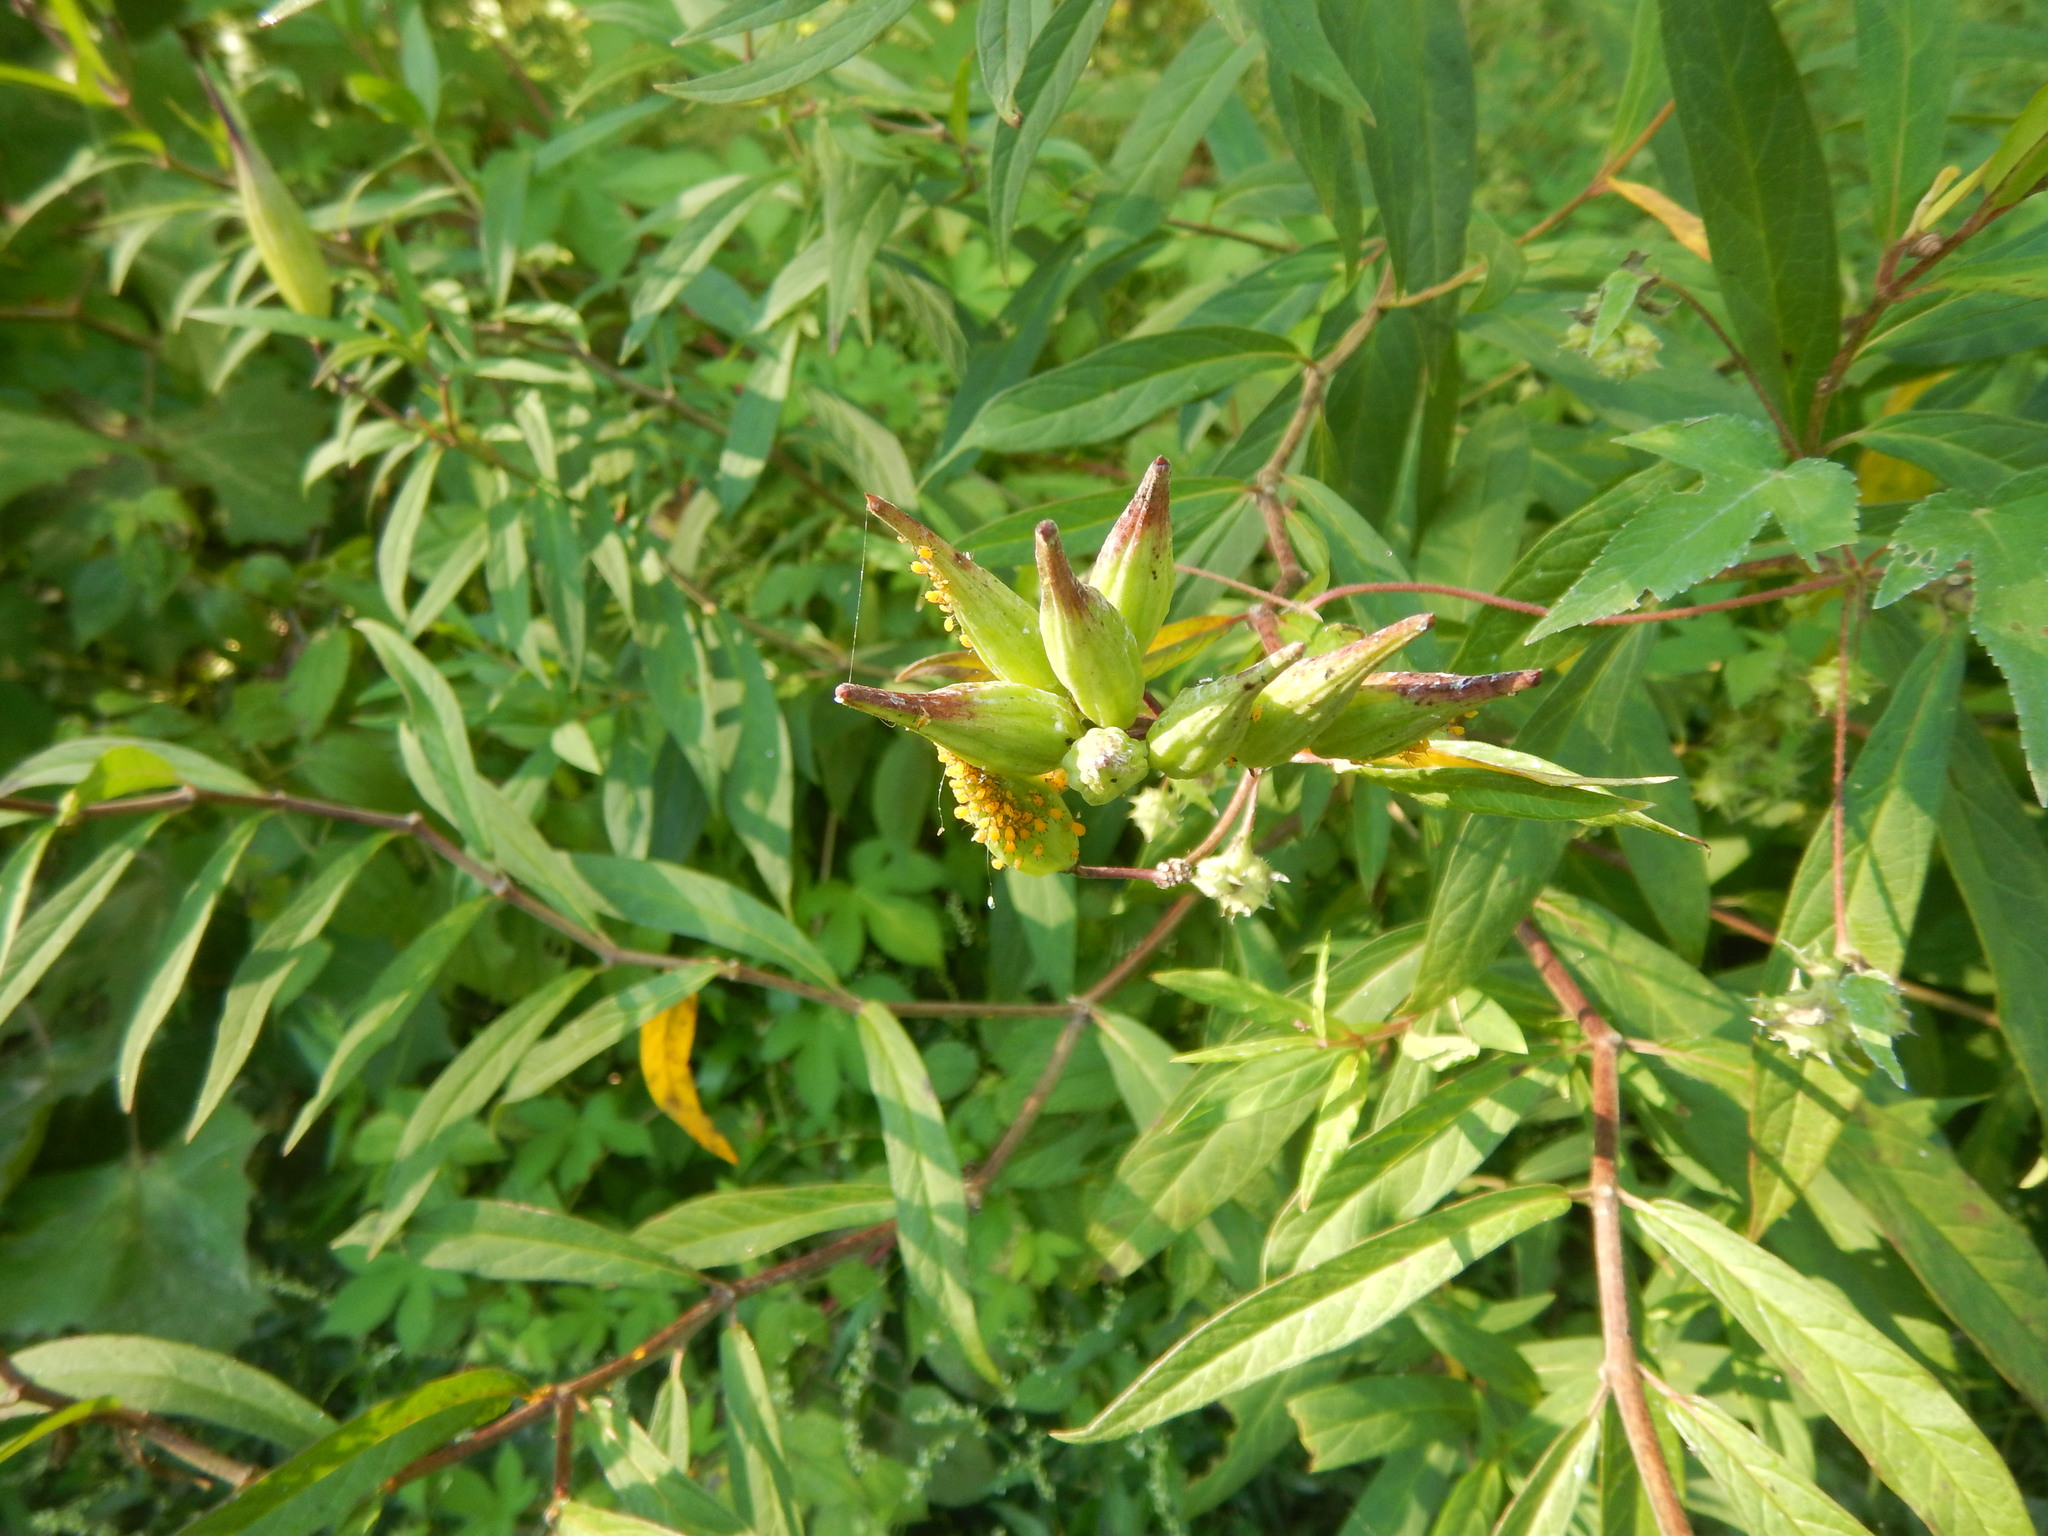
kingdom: Plantae
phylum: Tracheophyta
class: Magnoliopsida
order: Gentianales
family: Apocynaceae
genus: Asclepias
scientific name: Asclepias incarnata
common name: Swamp milkweed
